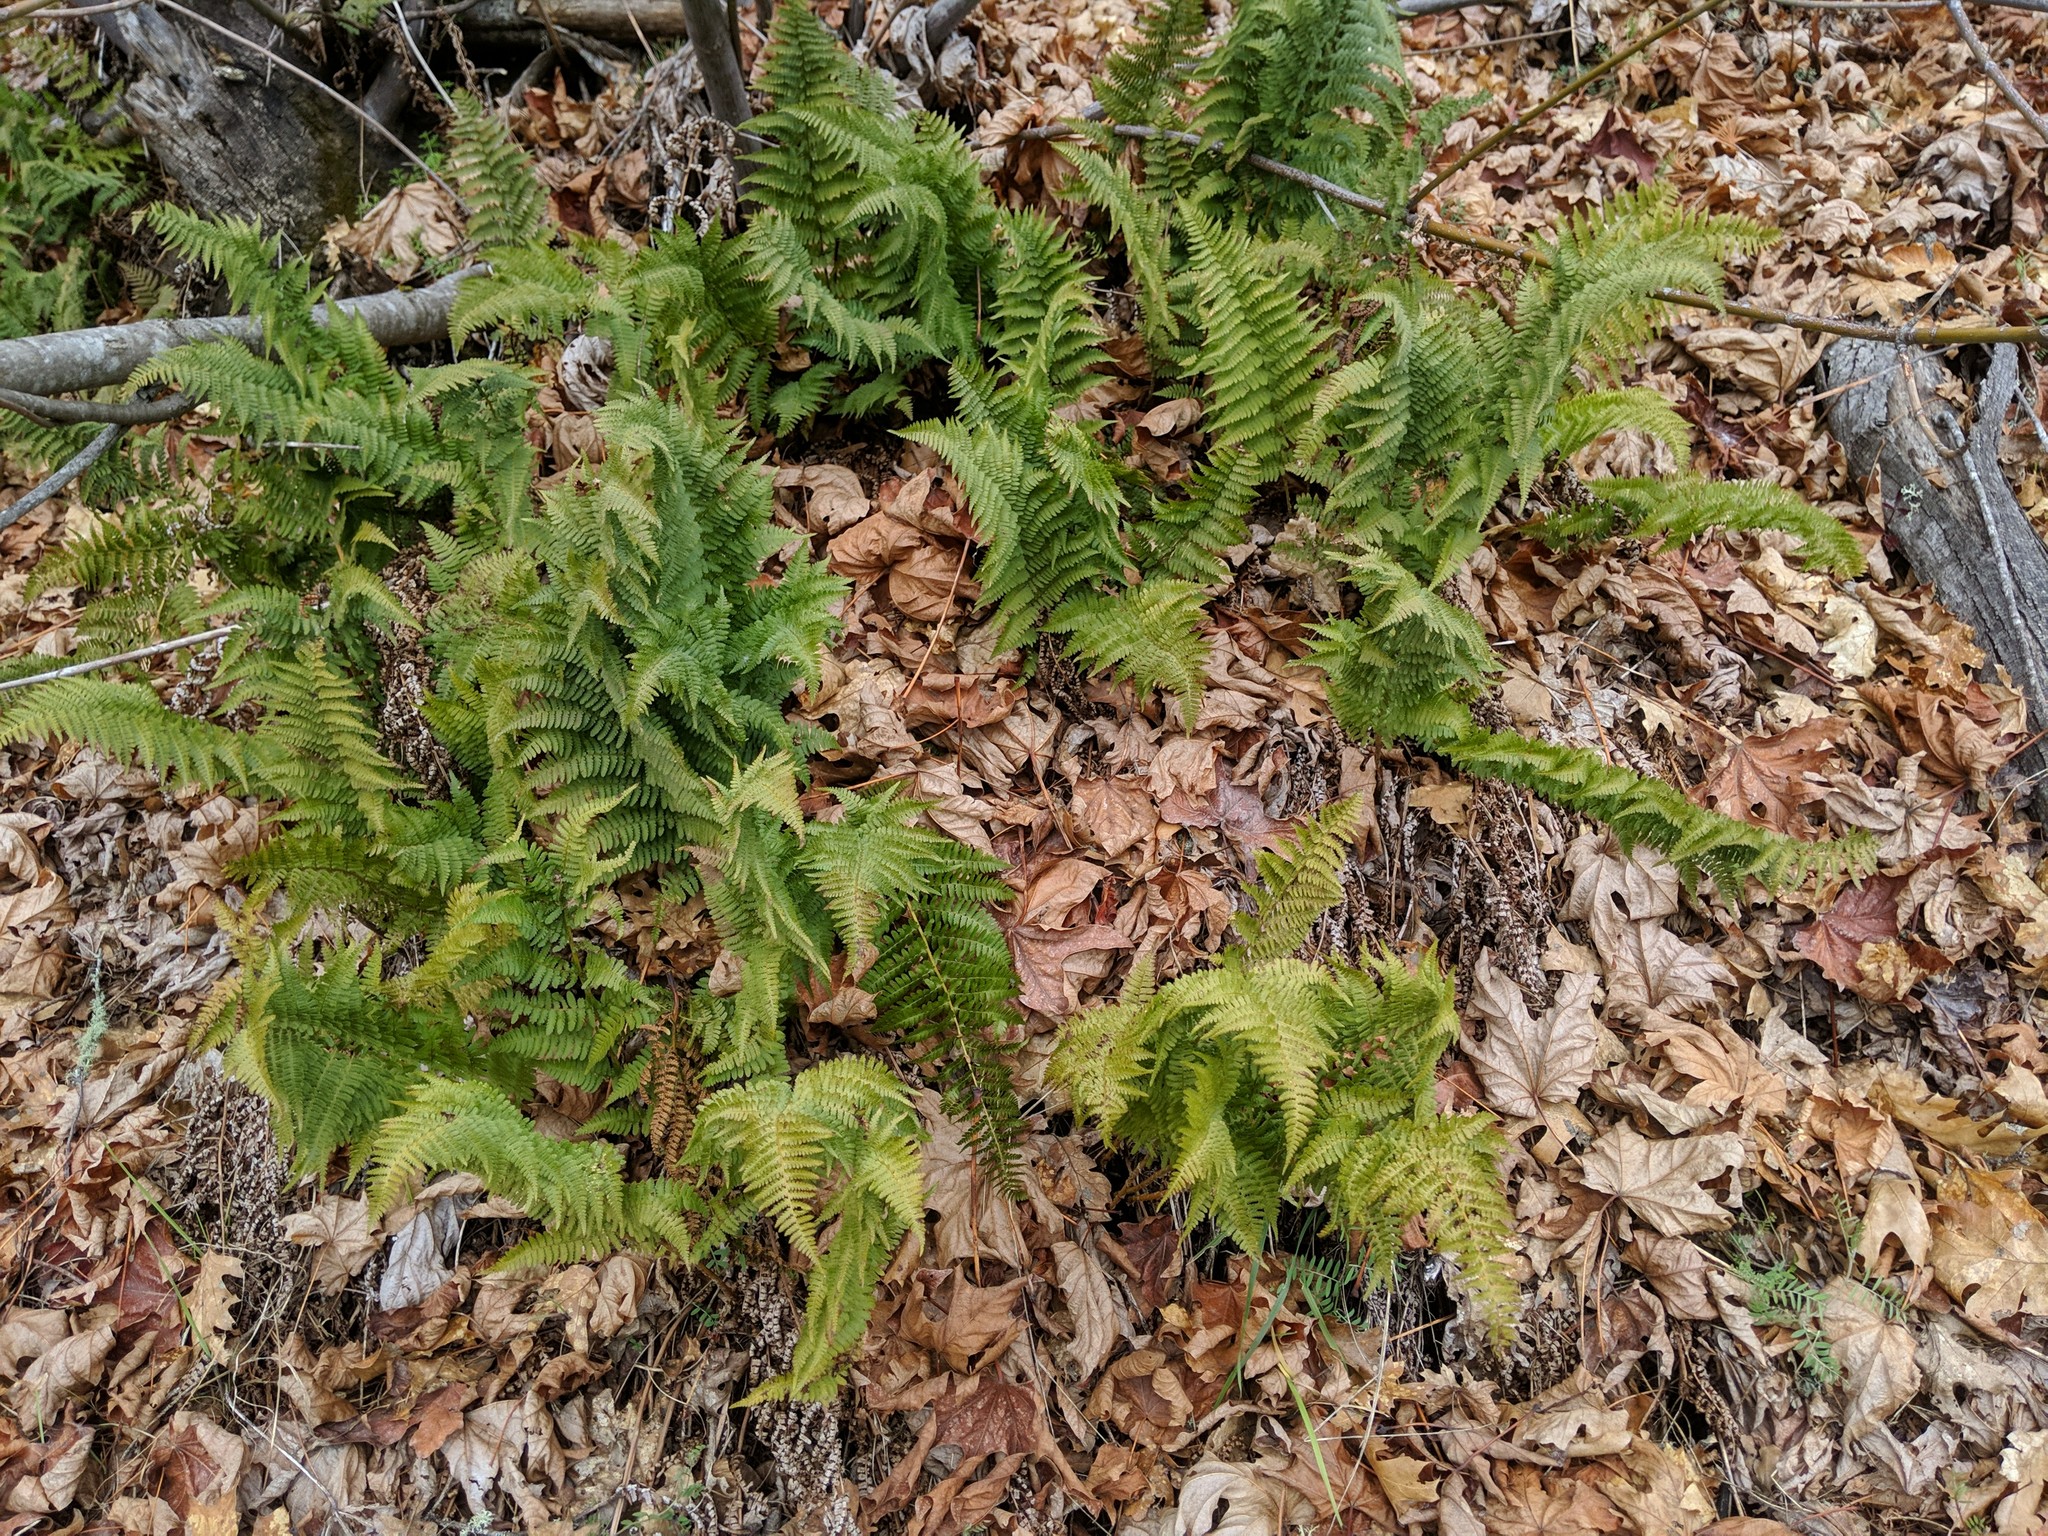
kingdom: Plantae
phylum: Tracheophyta
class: Polypodiopsida
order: Polypodiales
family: Dryopteridaceae
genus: Dryopteris
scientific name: Dryopteris arguta
